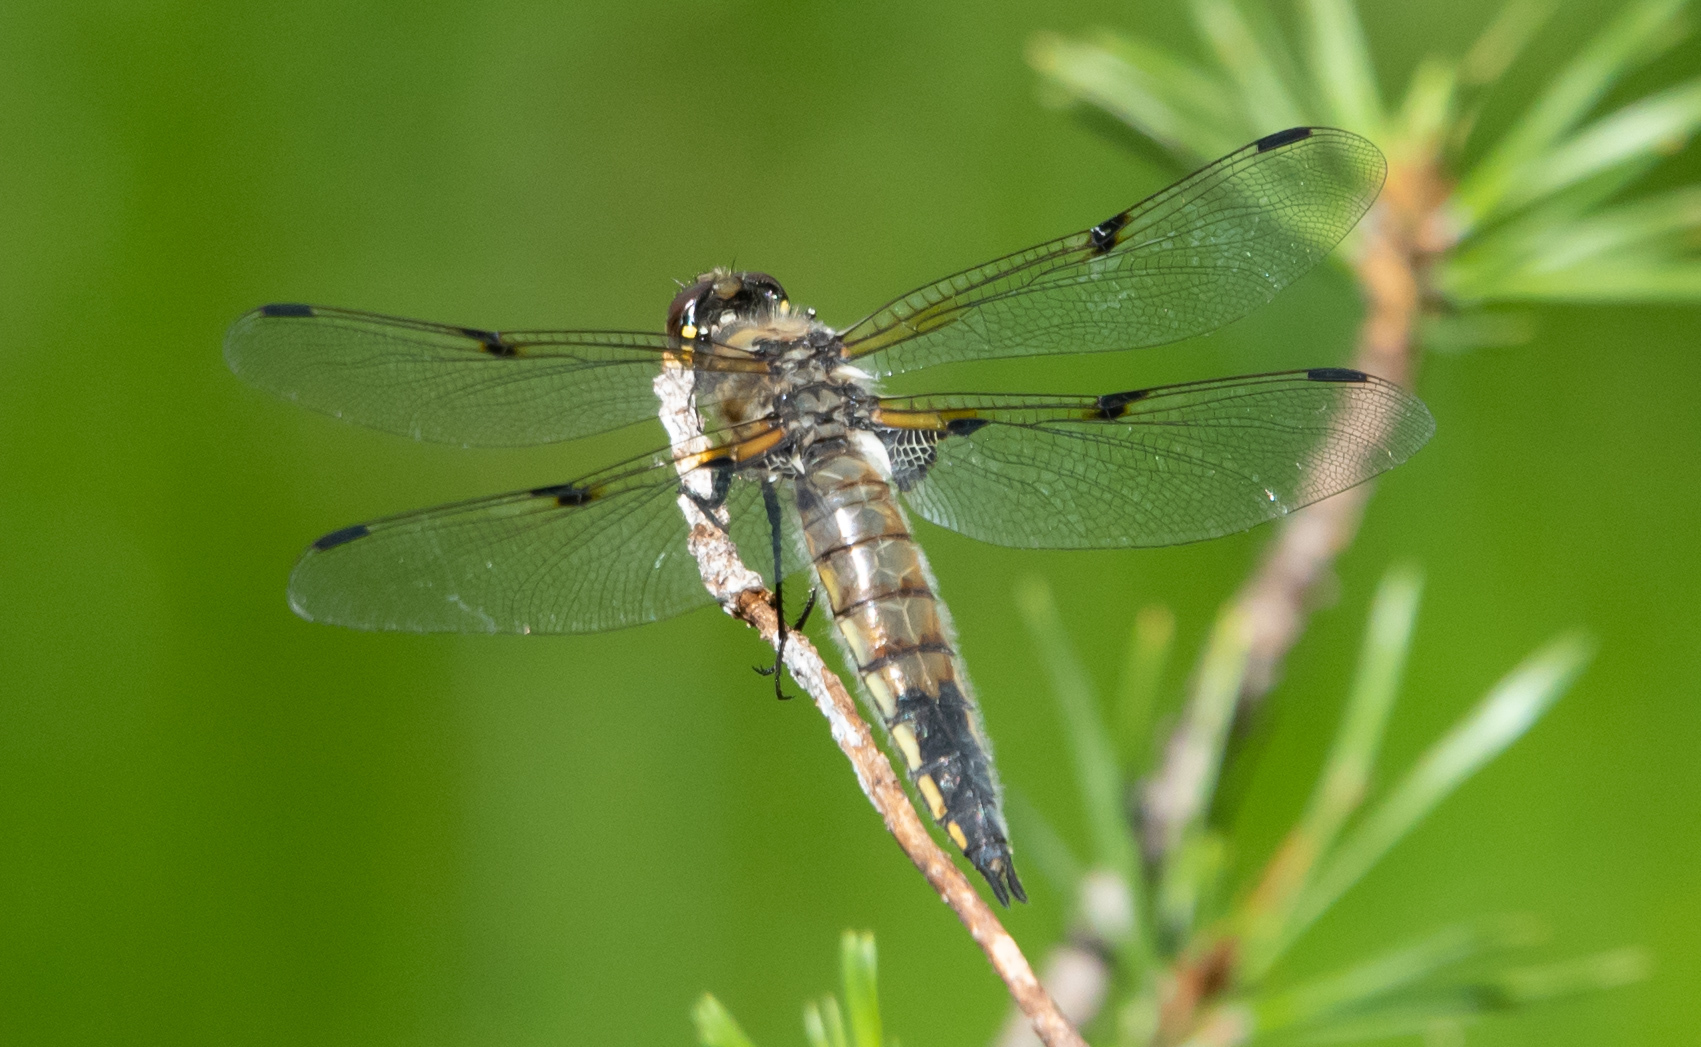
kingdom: Animalia
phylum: Arthropoda
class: Insecta
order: Odonata
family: Libellulidae
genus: Libellula
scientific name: Libellula quadrimaculata
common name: Four-spotted chaser
